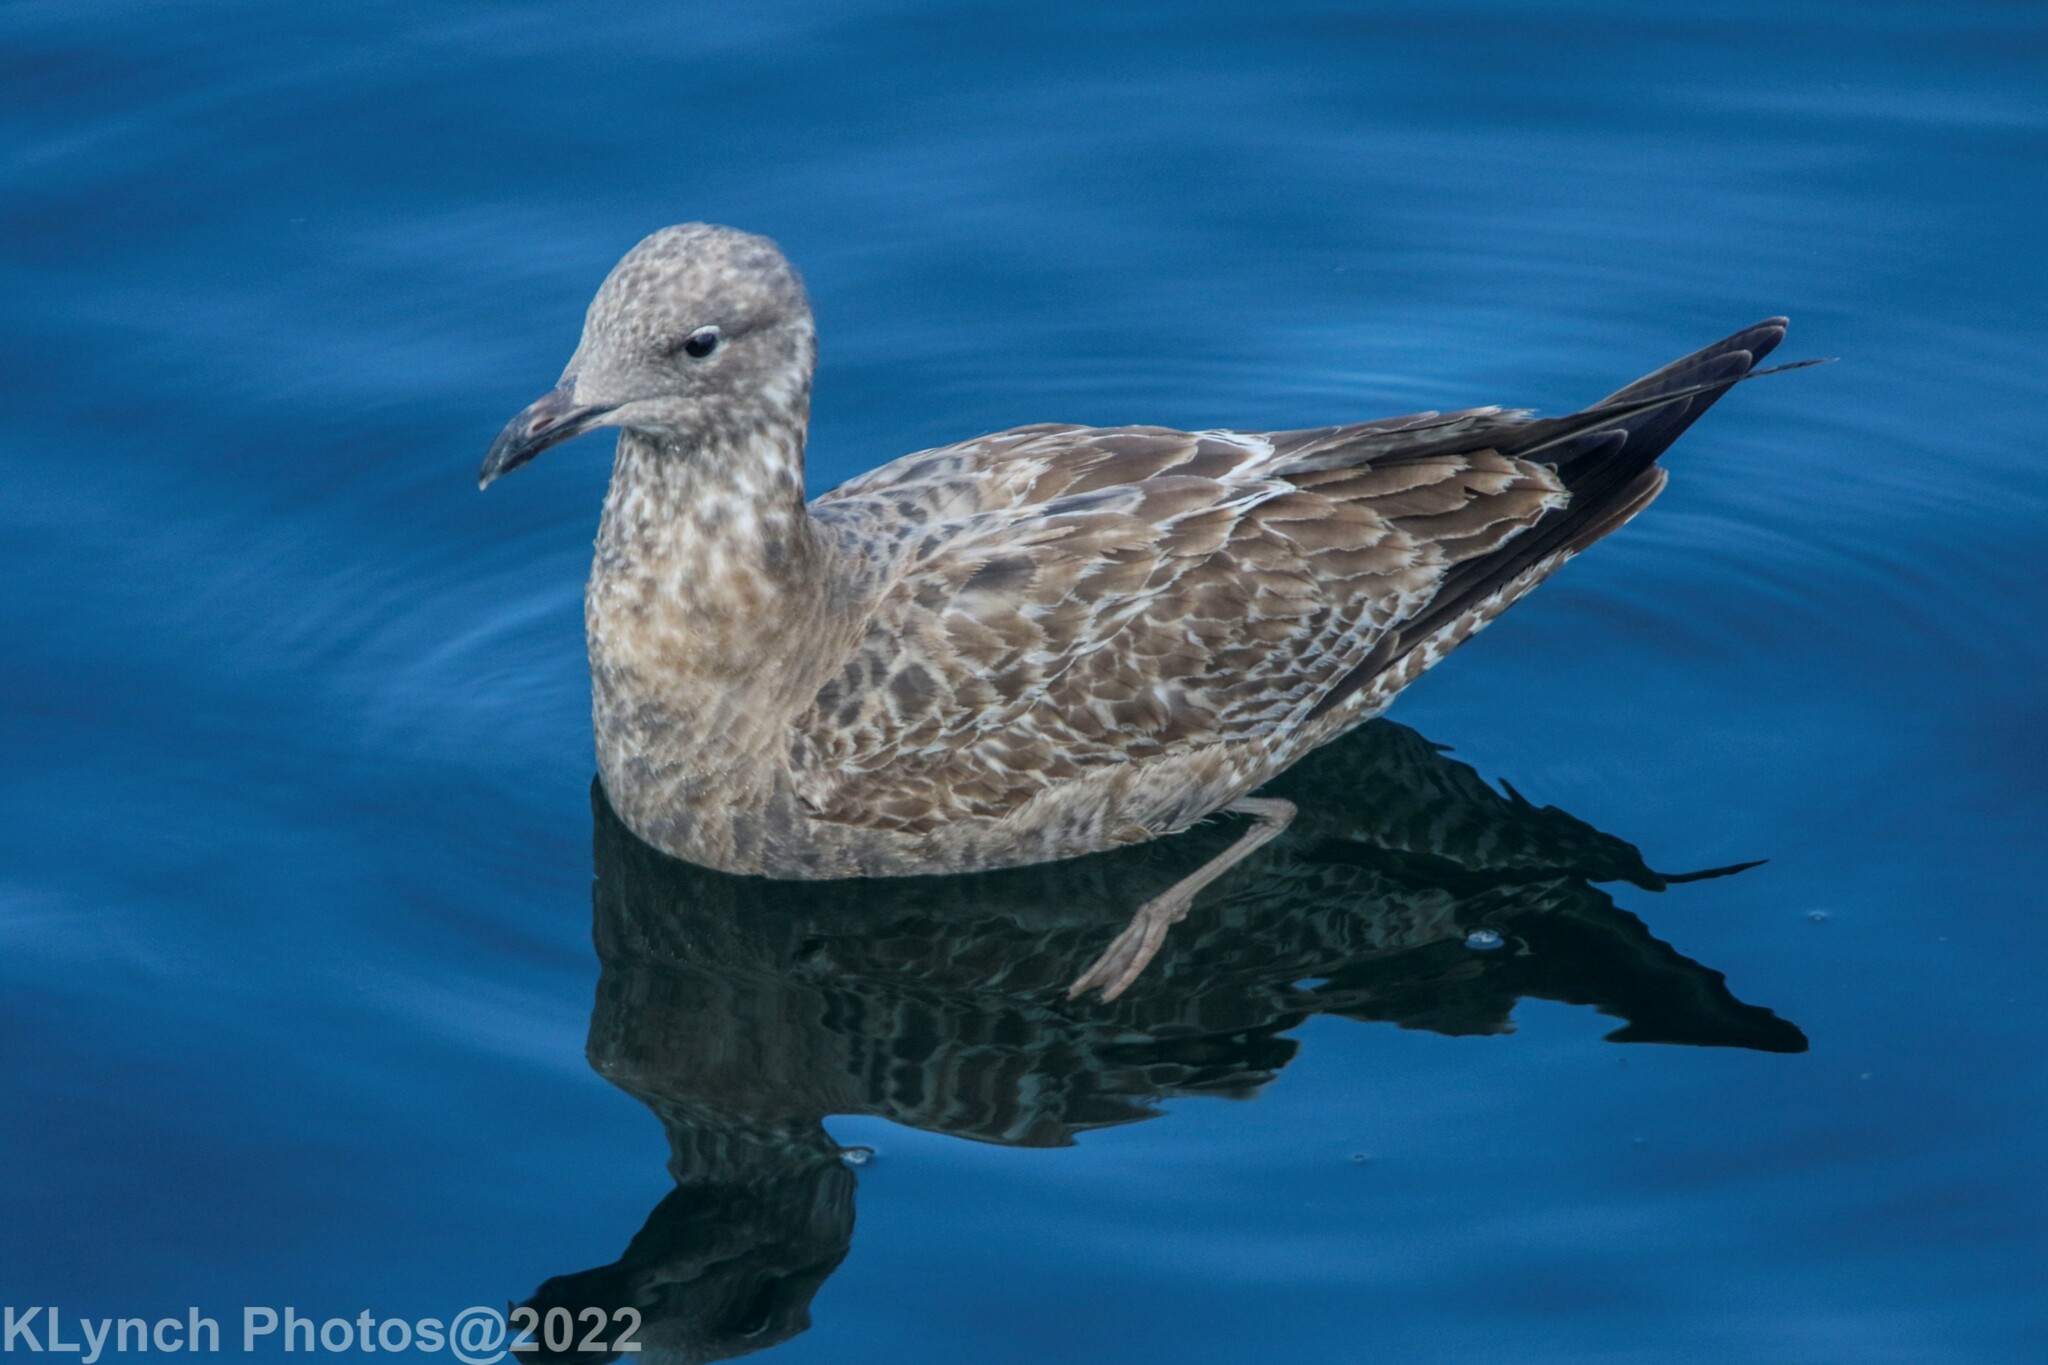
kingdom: Animalia
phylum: Chordata
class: Aves
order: Charadriiformes
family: Laridae
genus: Larus
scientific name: Larus argentatus
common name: Herring gull
